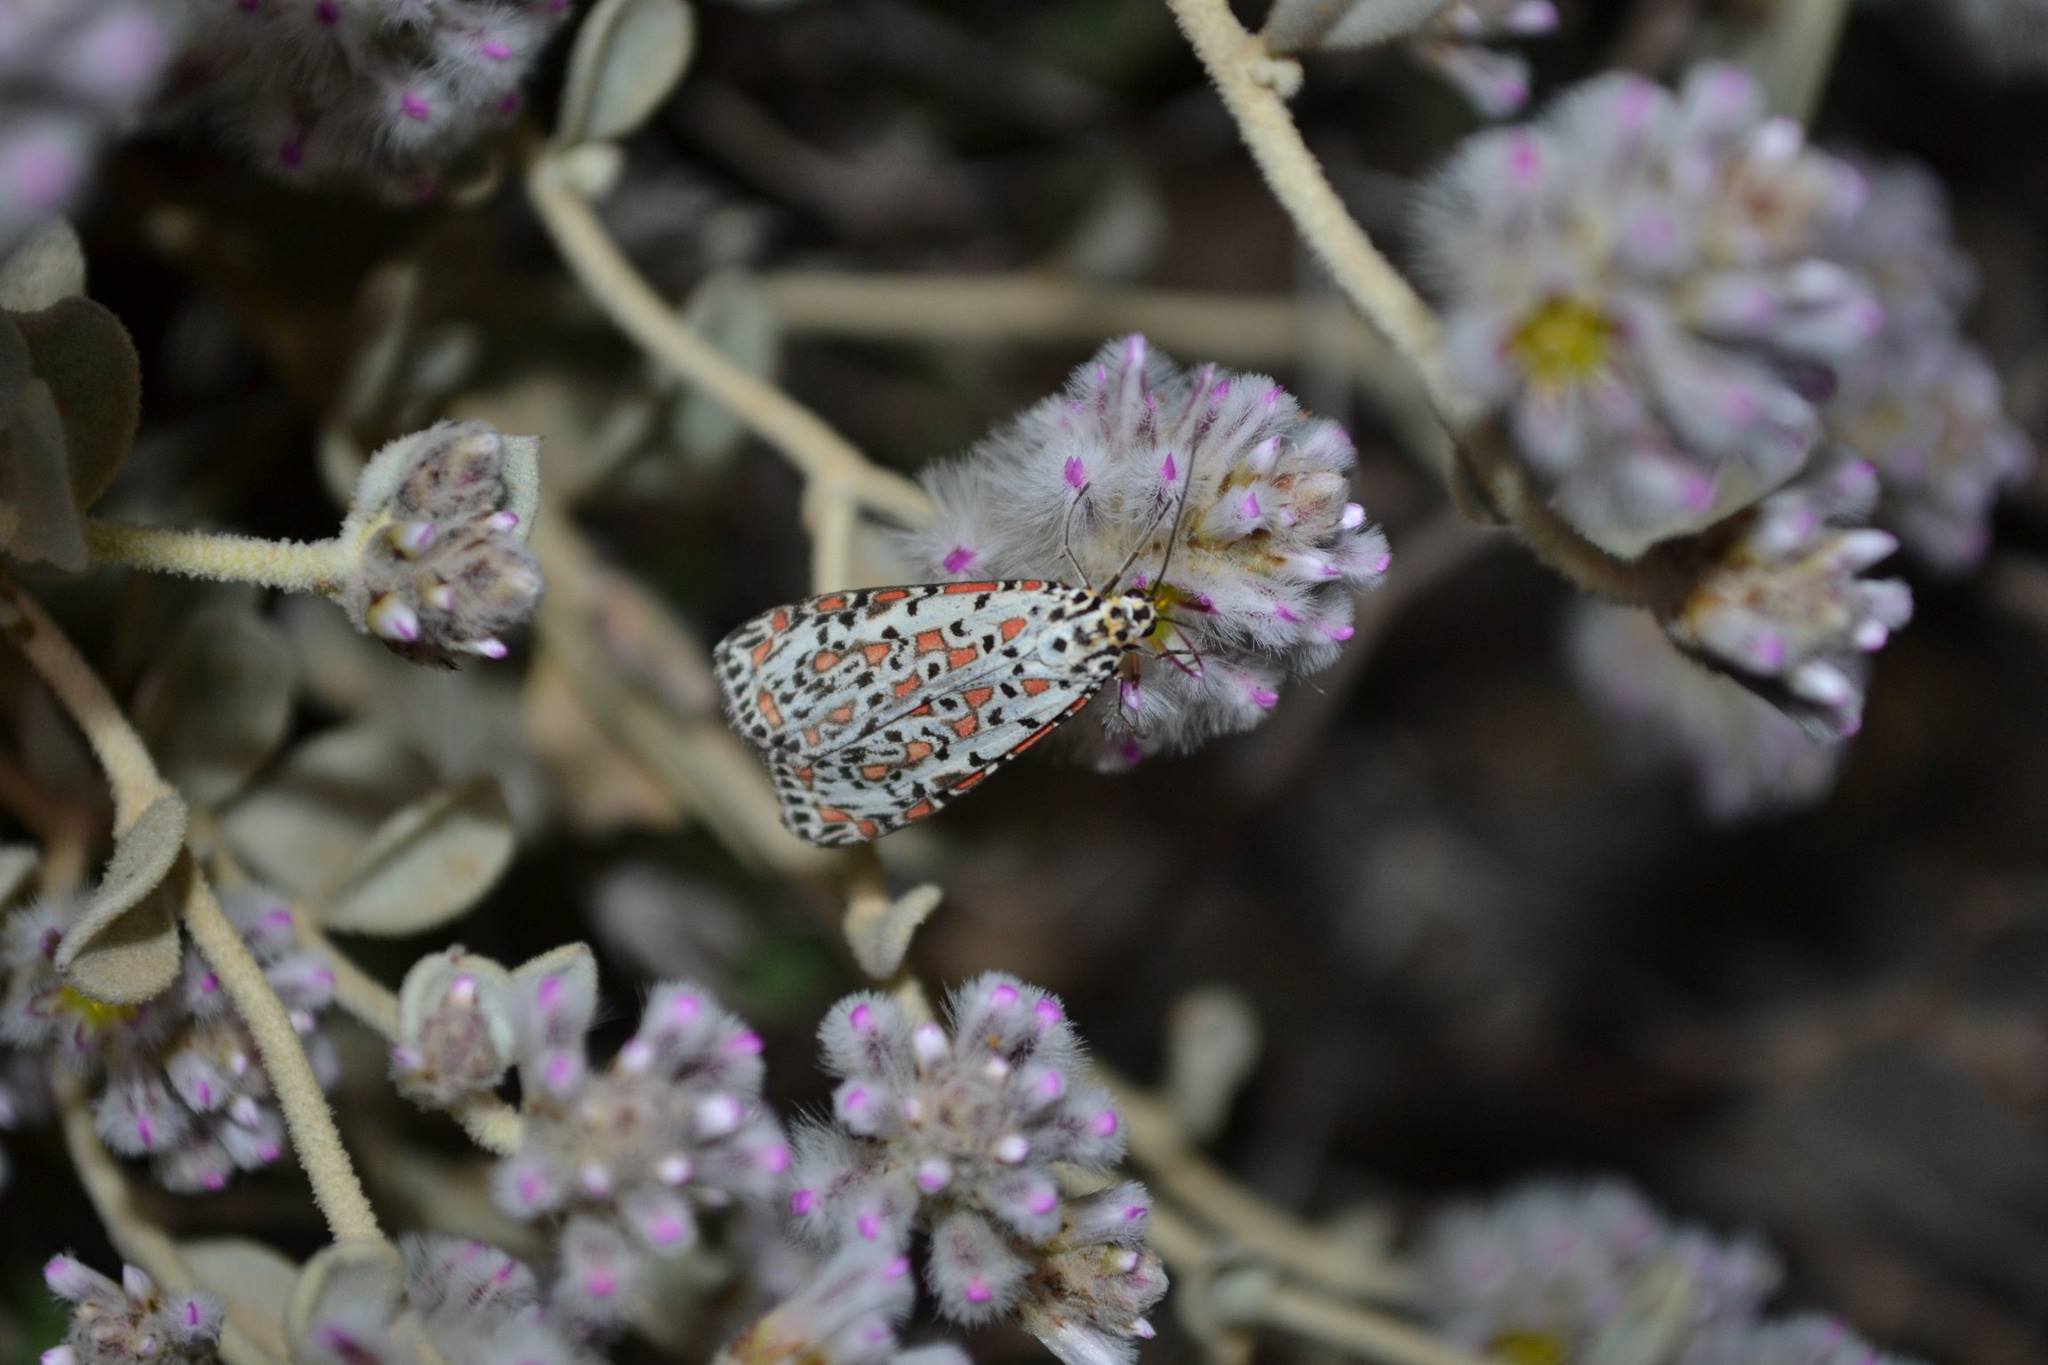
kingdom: Animalia
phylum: Arthropoda
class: Insecta
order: Lepidoptera
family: Erebidae
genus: Utetheisa
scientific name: Utetheisa pulchelloides
